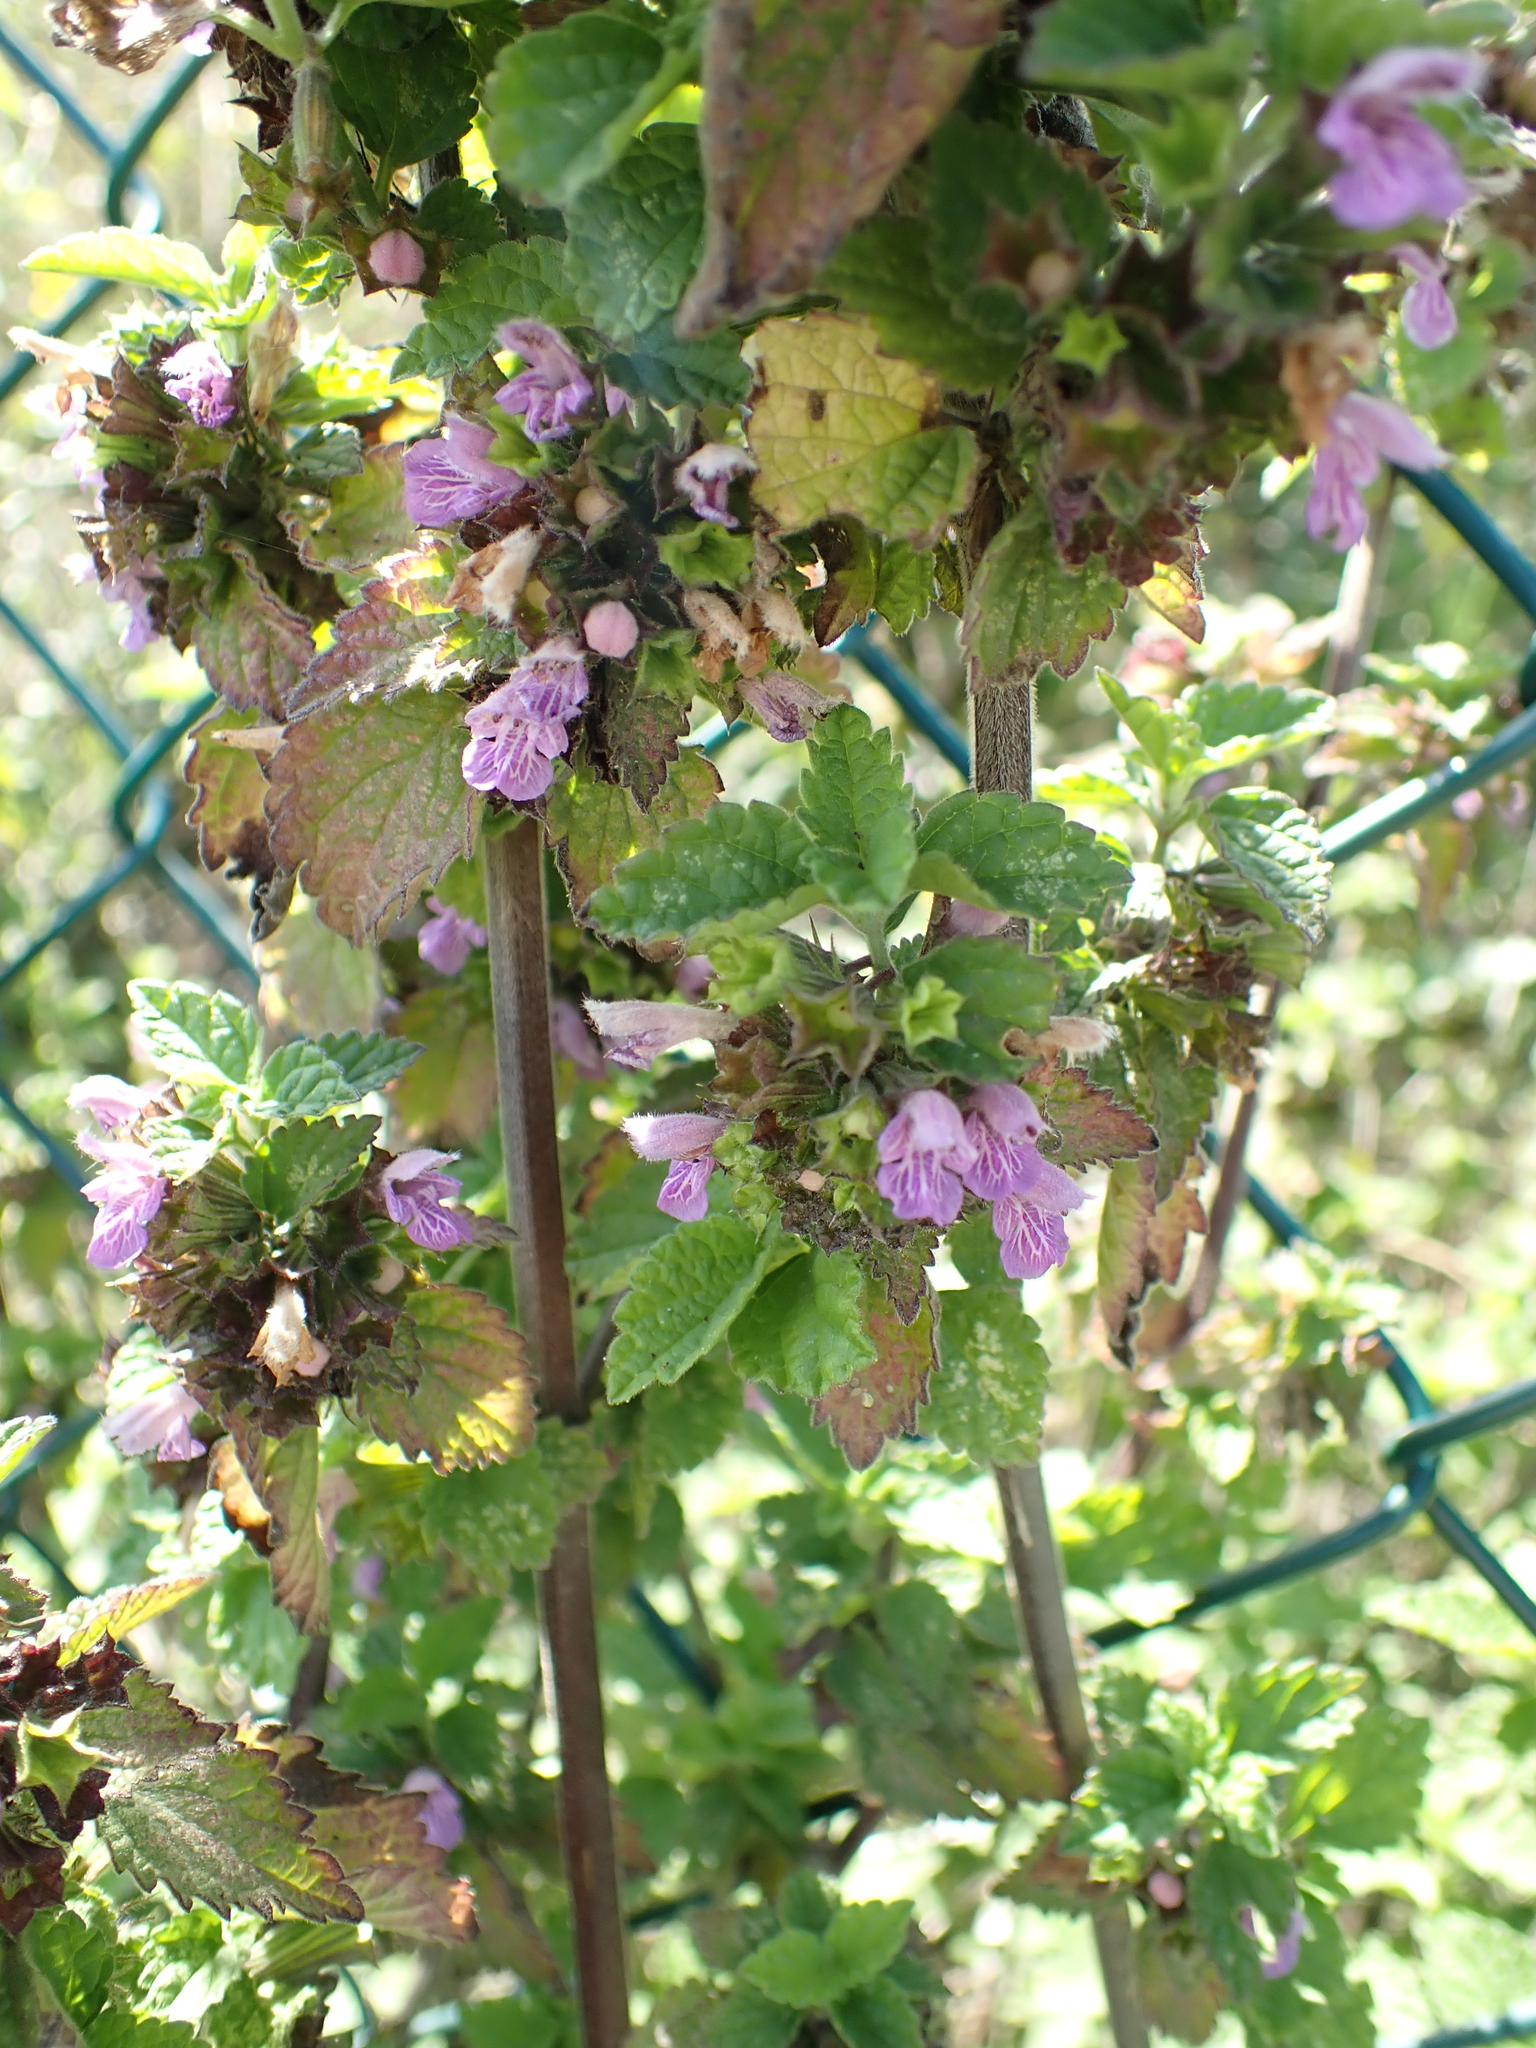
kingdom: Plantae
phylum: Tracheophyta
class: Magnoliopsida
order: Lamiales
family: Lamiaceae
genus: Ballota
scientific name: Ballota nigra
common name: Black horehound
